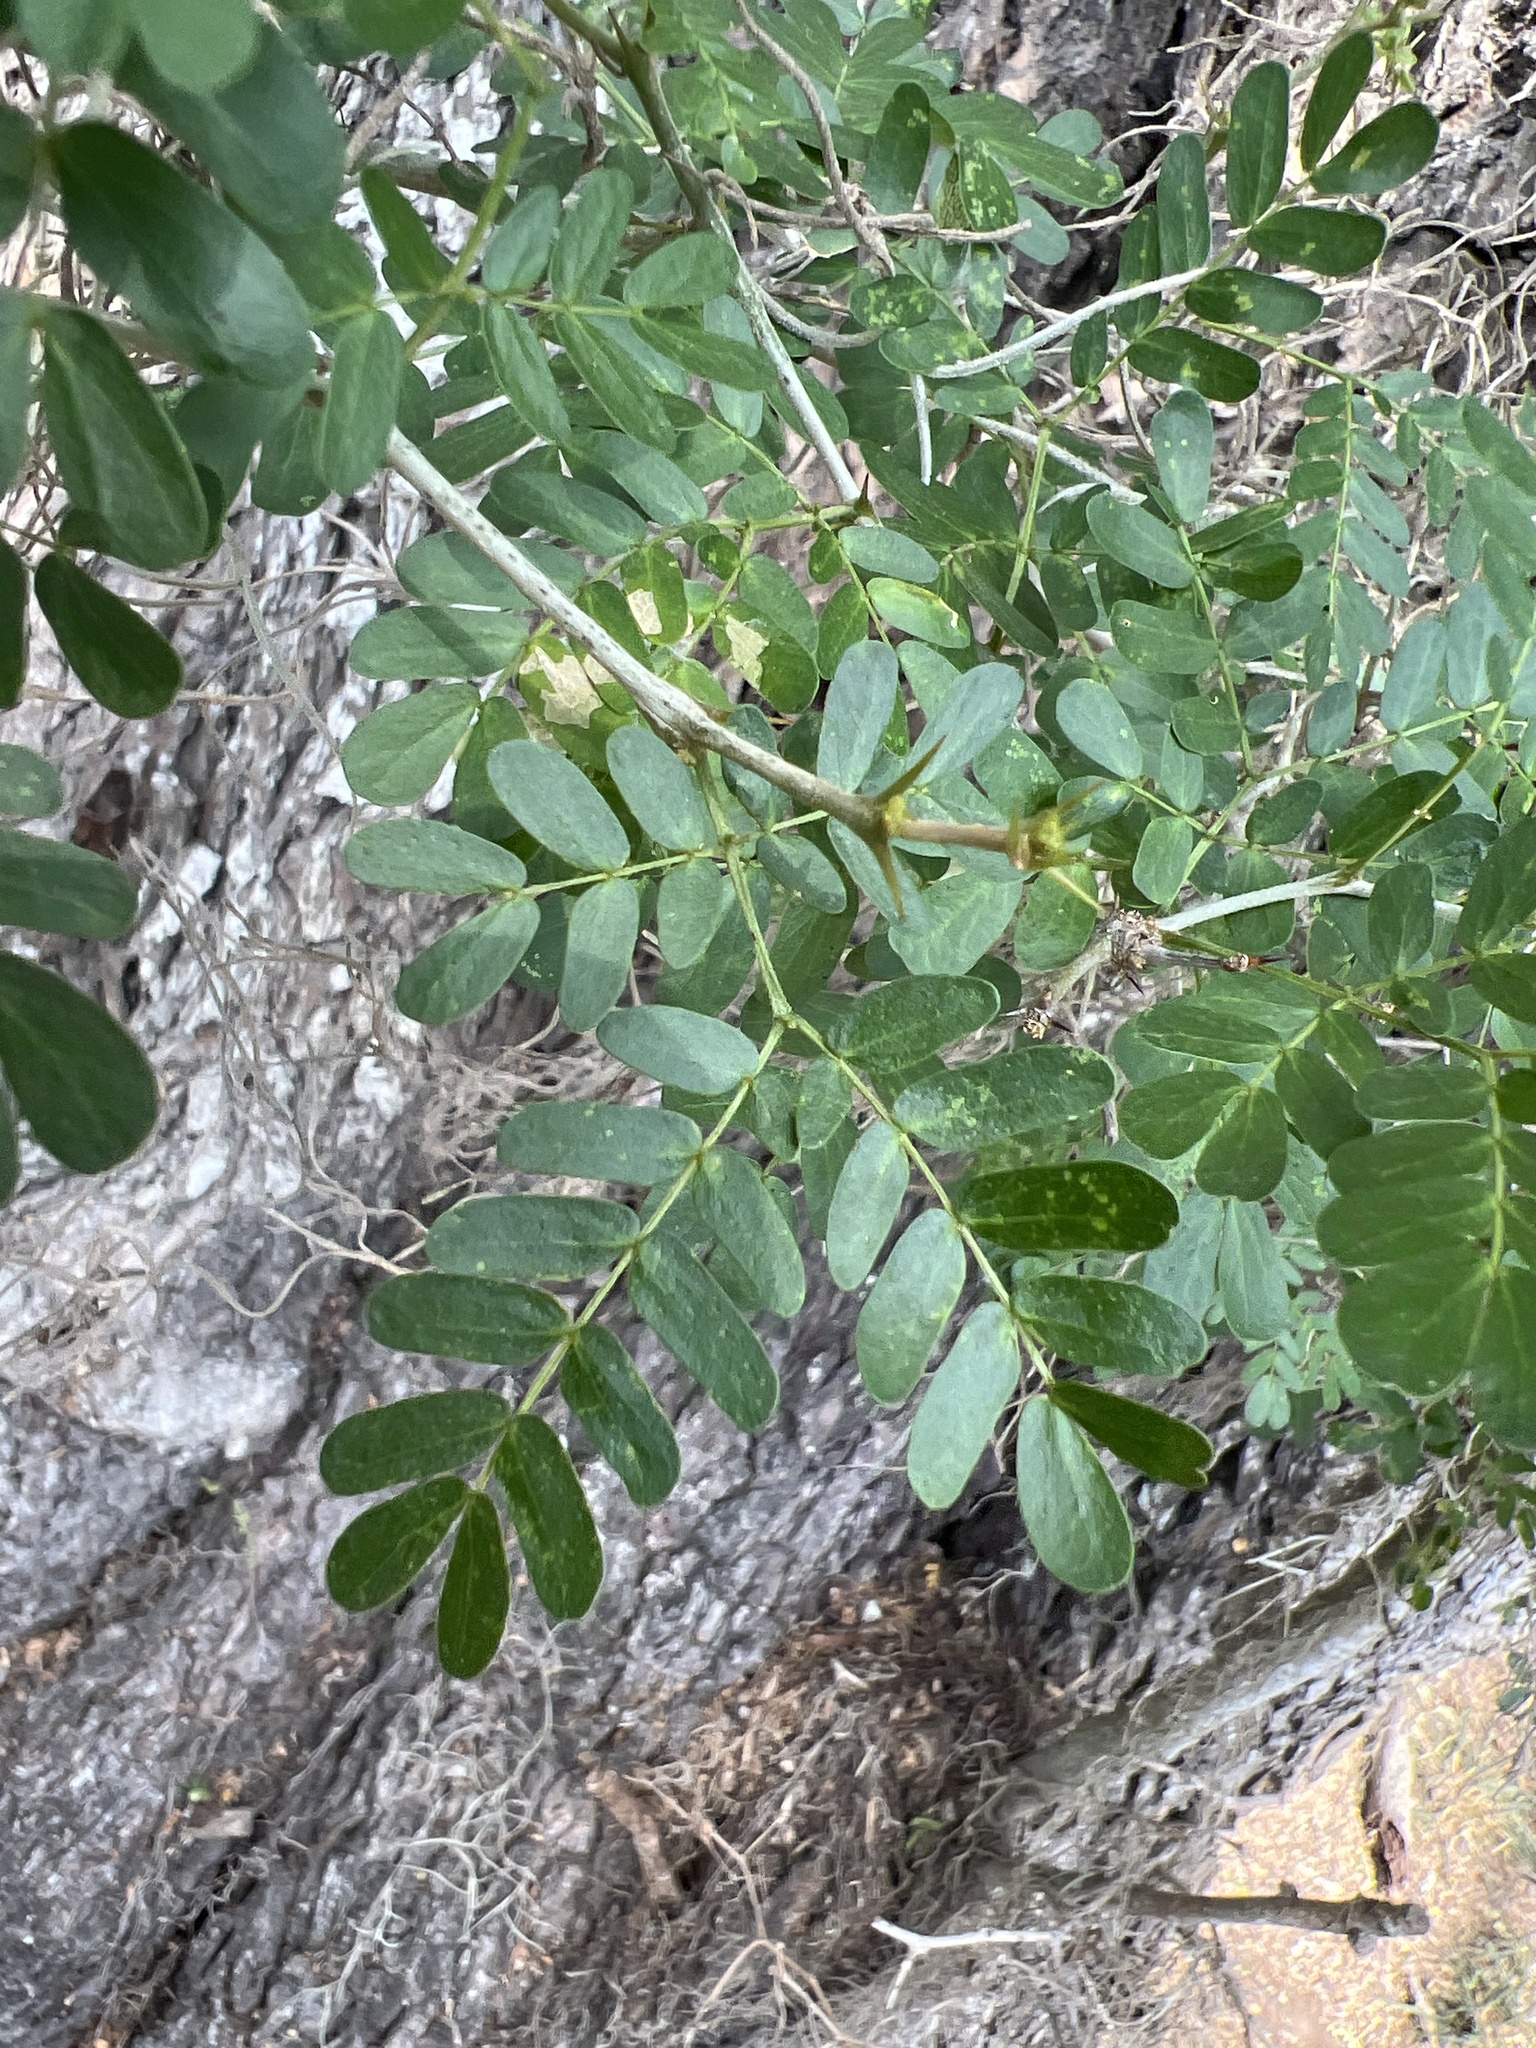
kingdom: Plantae
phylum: Tracheophyta
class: Magnoliopsida
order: Fabales
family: Fabaceae
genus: Ebenopsis
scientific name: Ebenopsis ebano
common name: Ebony blackbead
